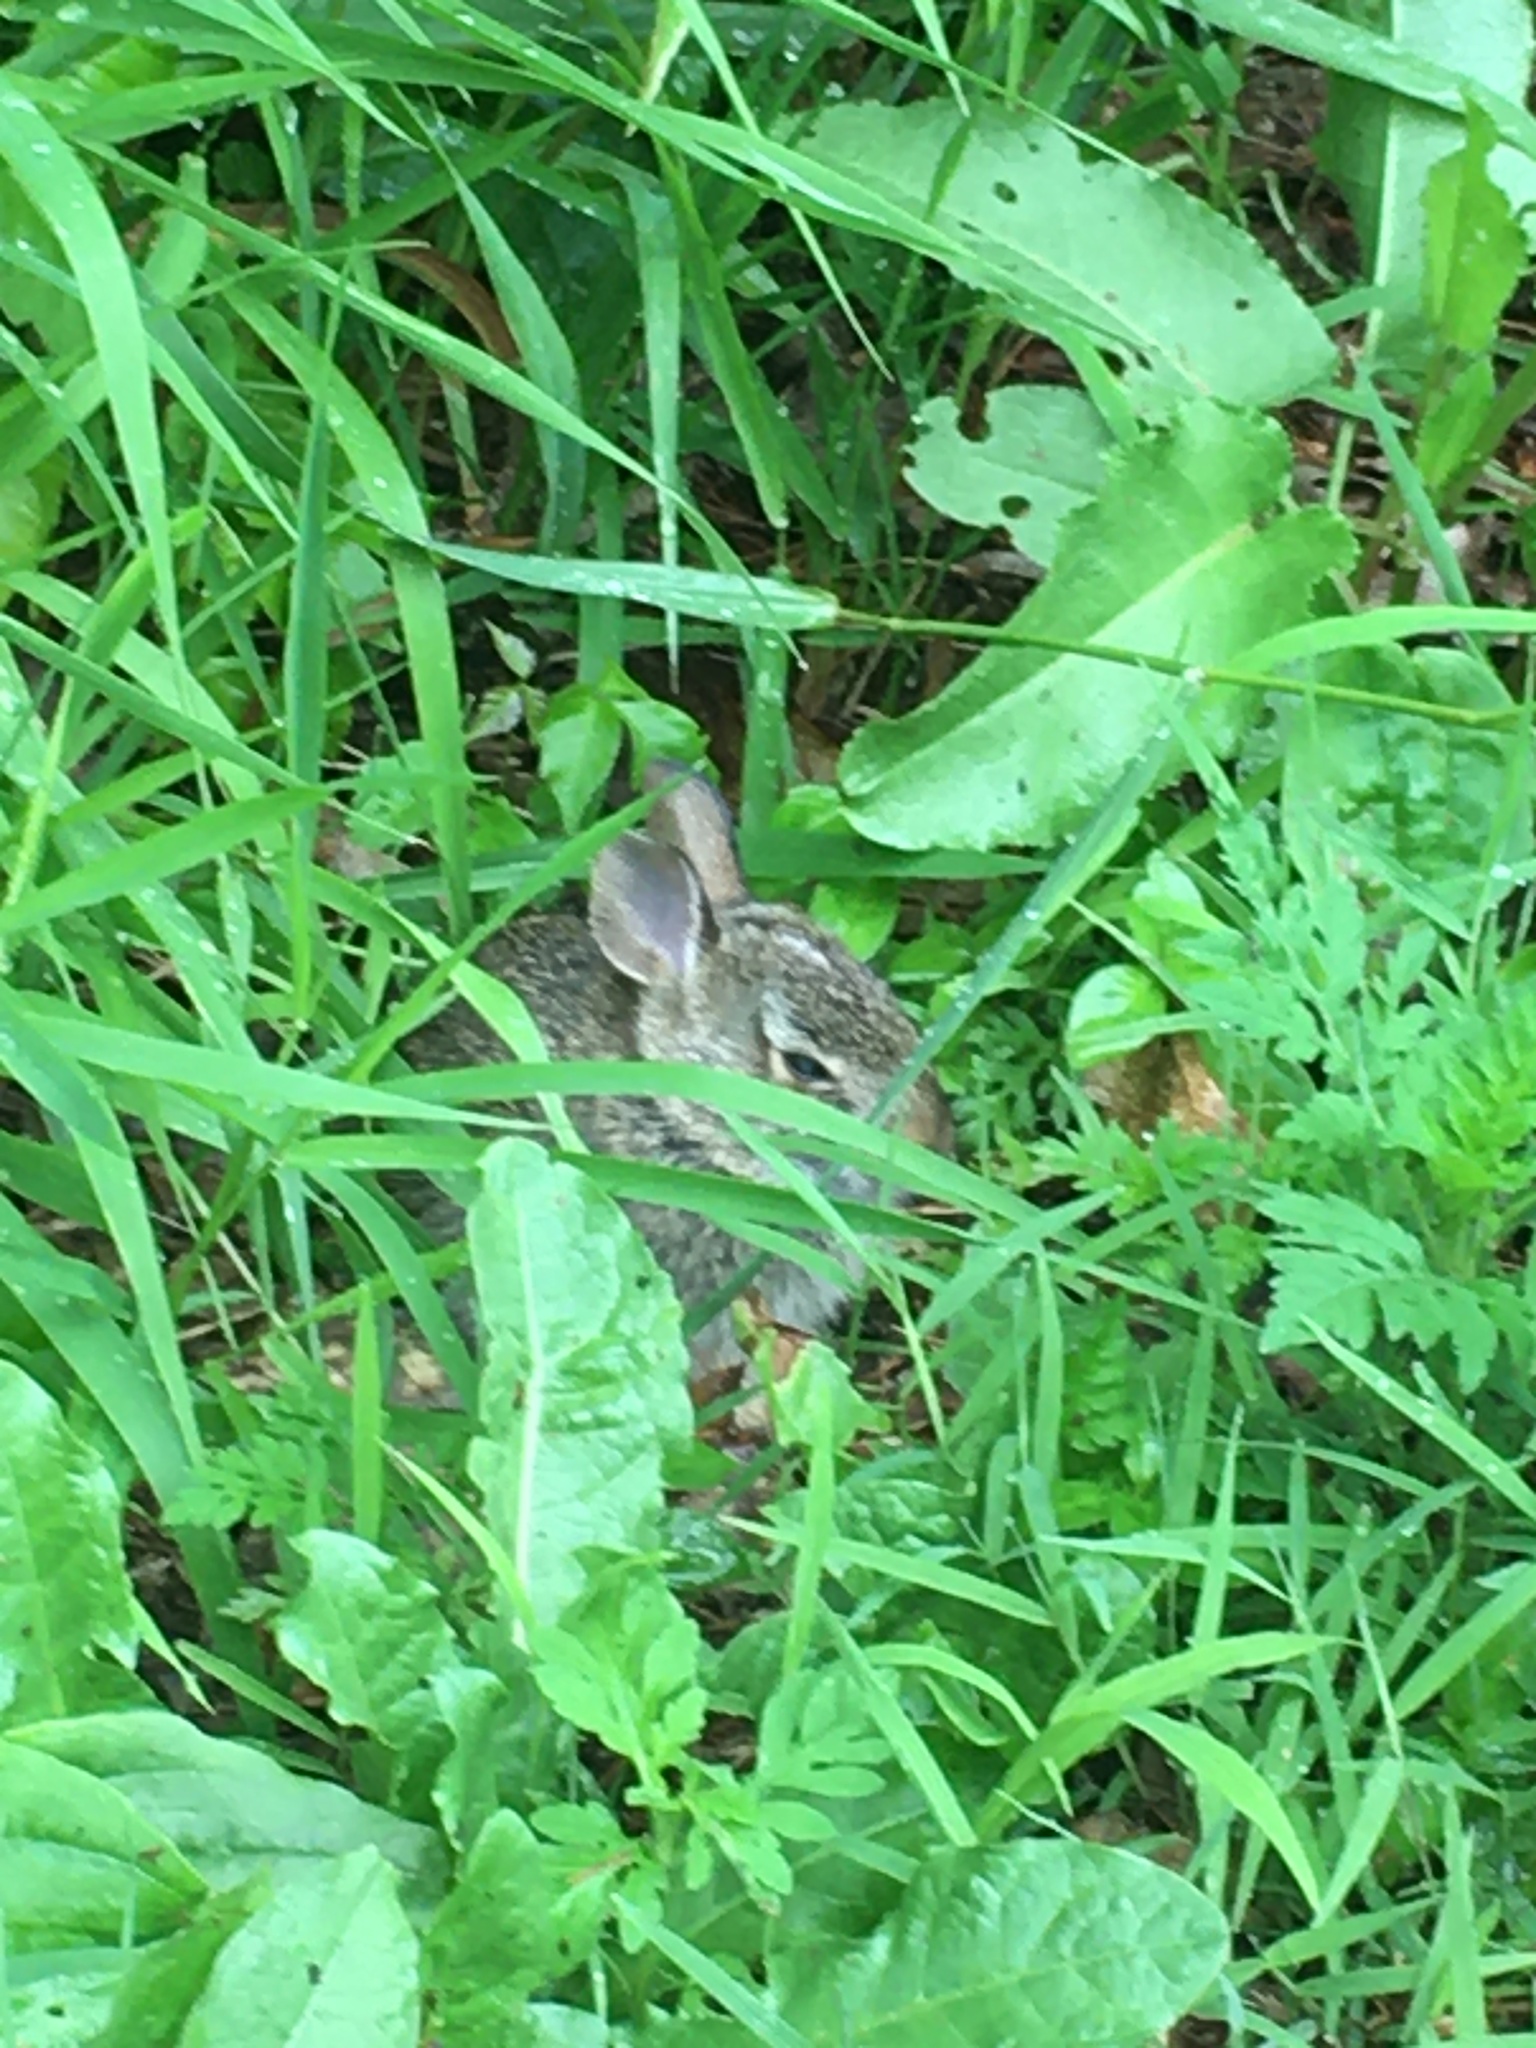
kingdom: Animalia
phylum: Chordata
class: Mammalia
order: Lagomorpha
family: Leporidae
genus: Sylvilagus
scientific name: Sylvilagus floridanus
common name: Eastern cottontail
